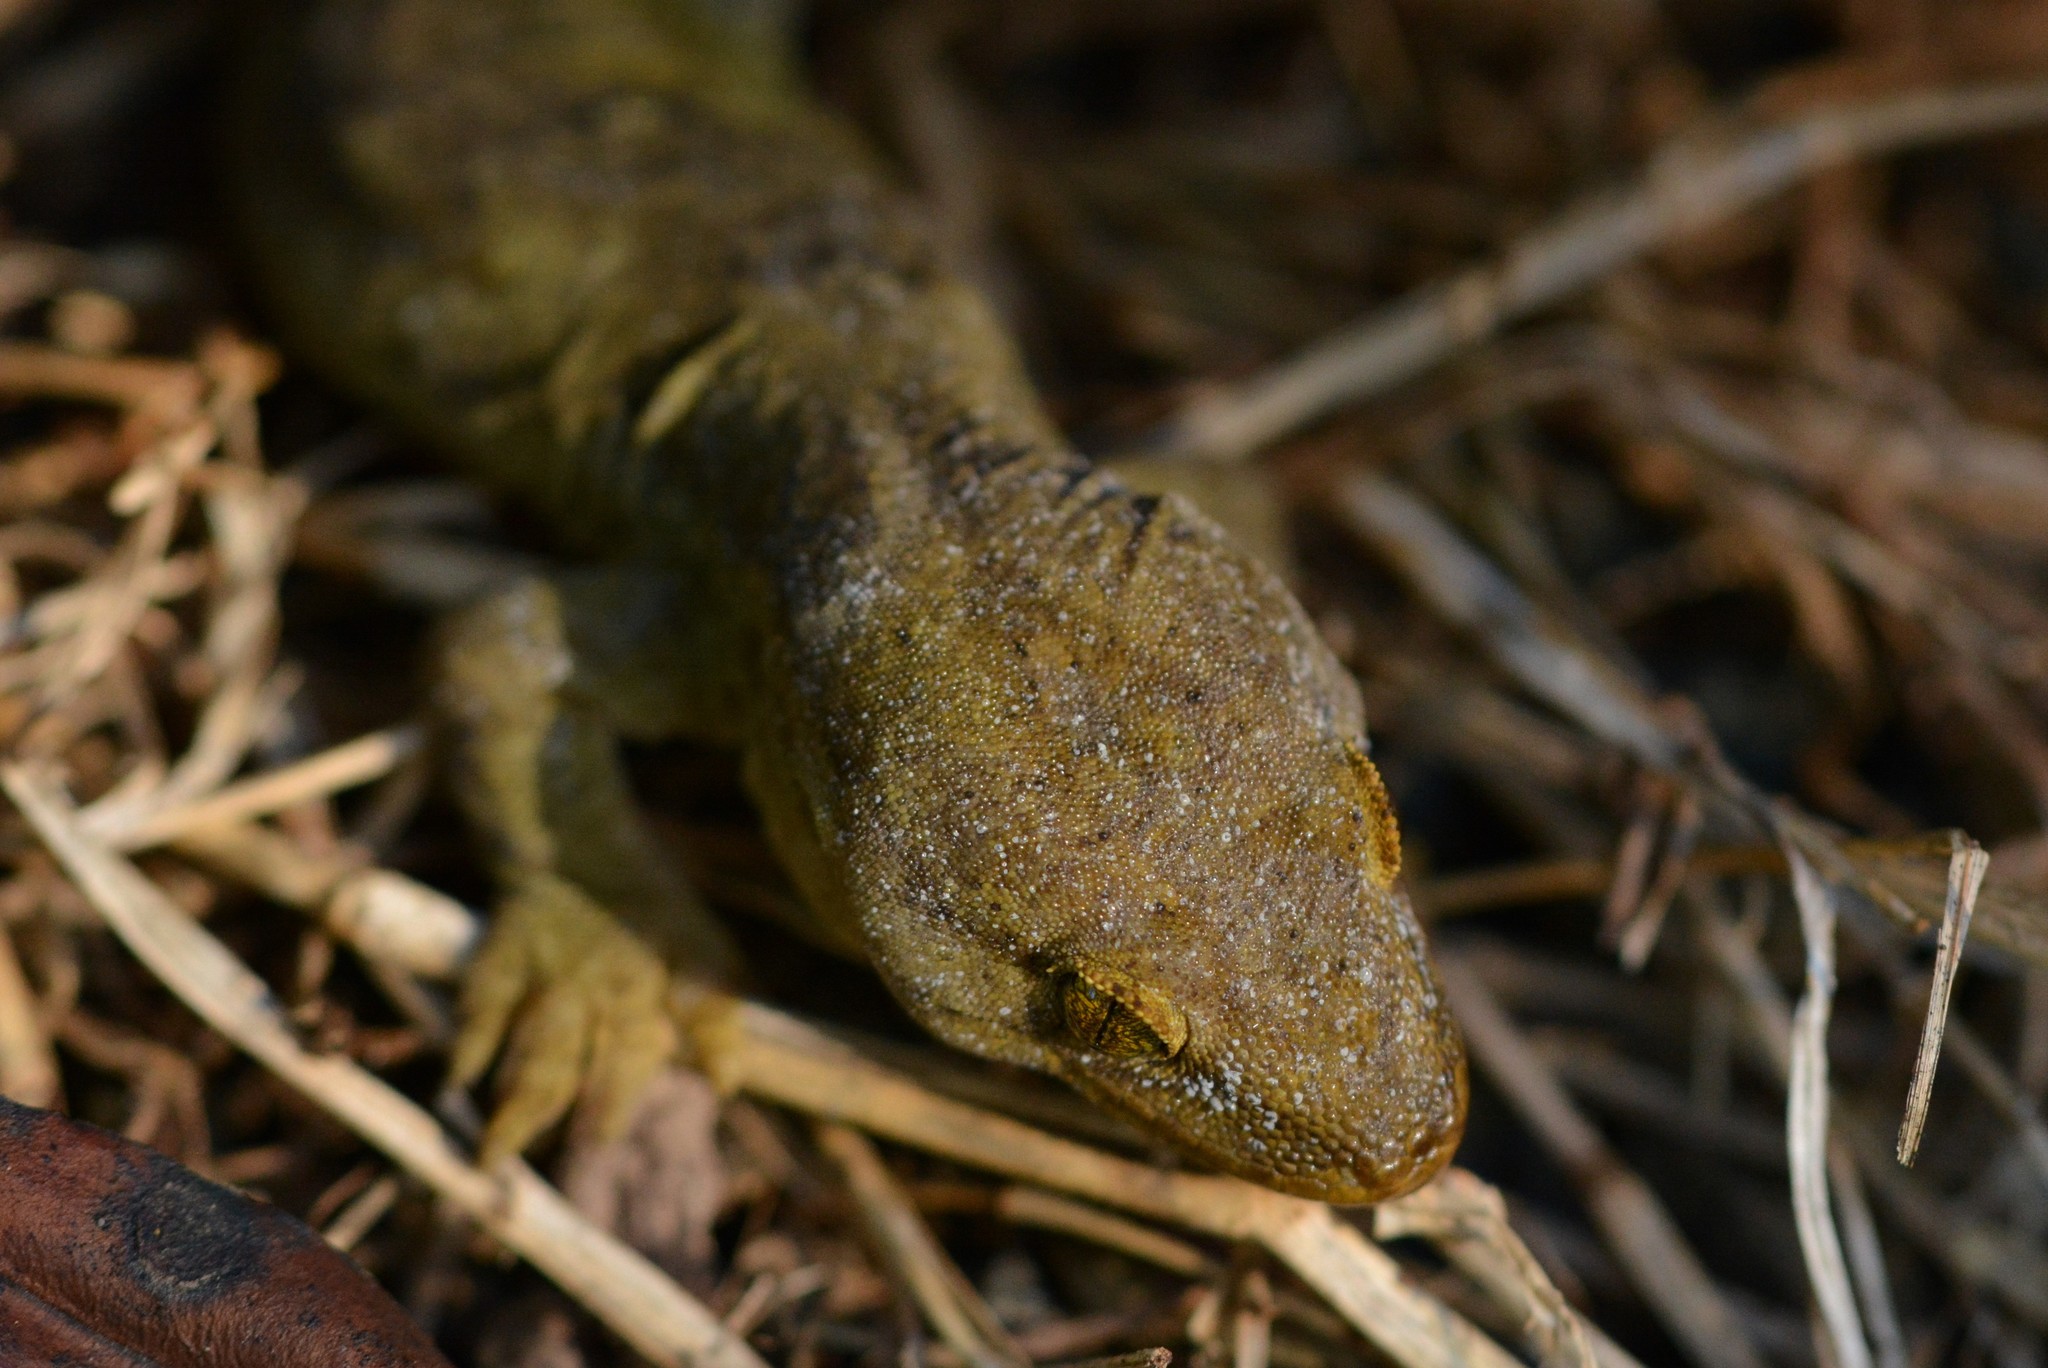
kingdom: Animalia
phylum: Chordata
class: Squamata
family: Diplodactylidae
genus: Woodworthia
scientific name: Woodworthia maculata
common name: Raukawa gecko
